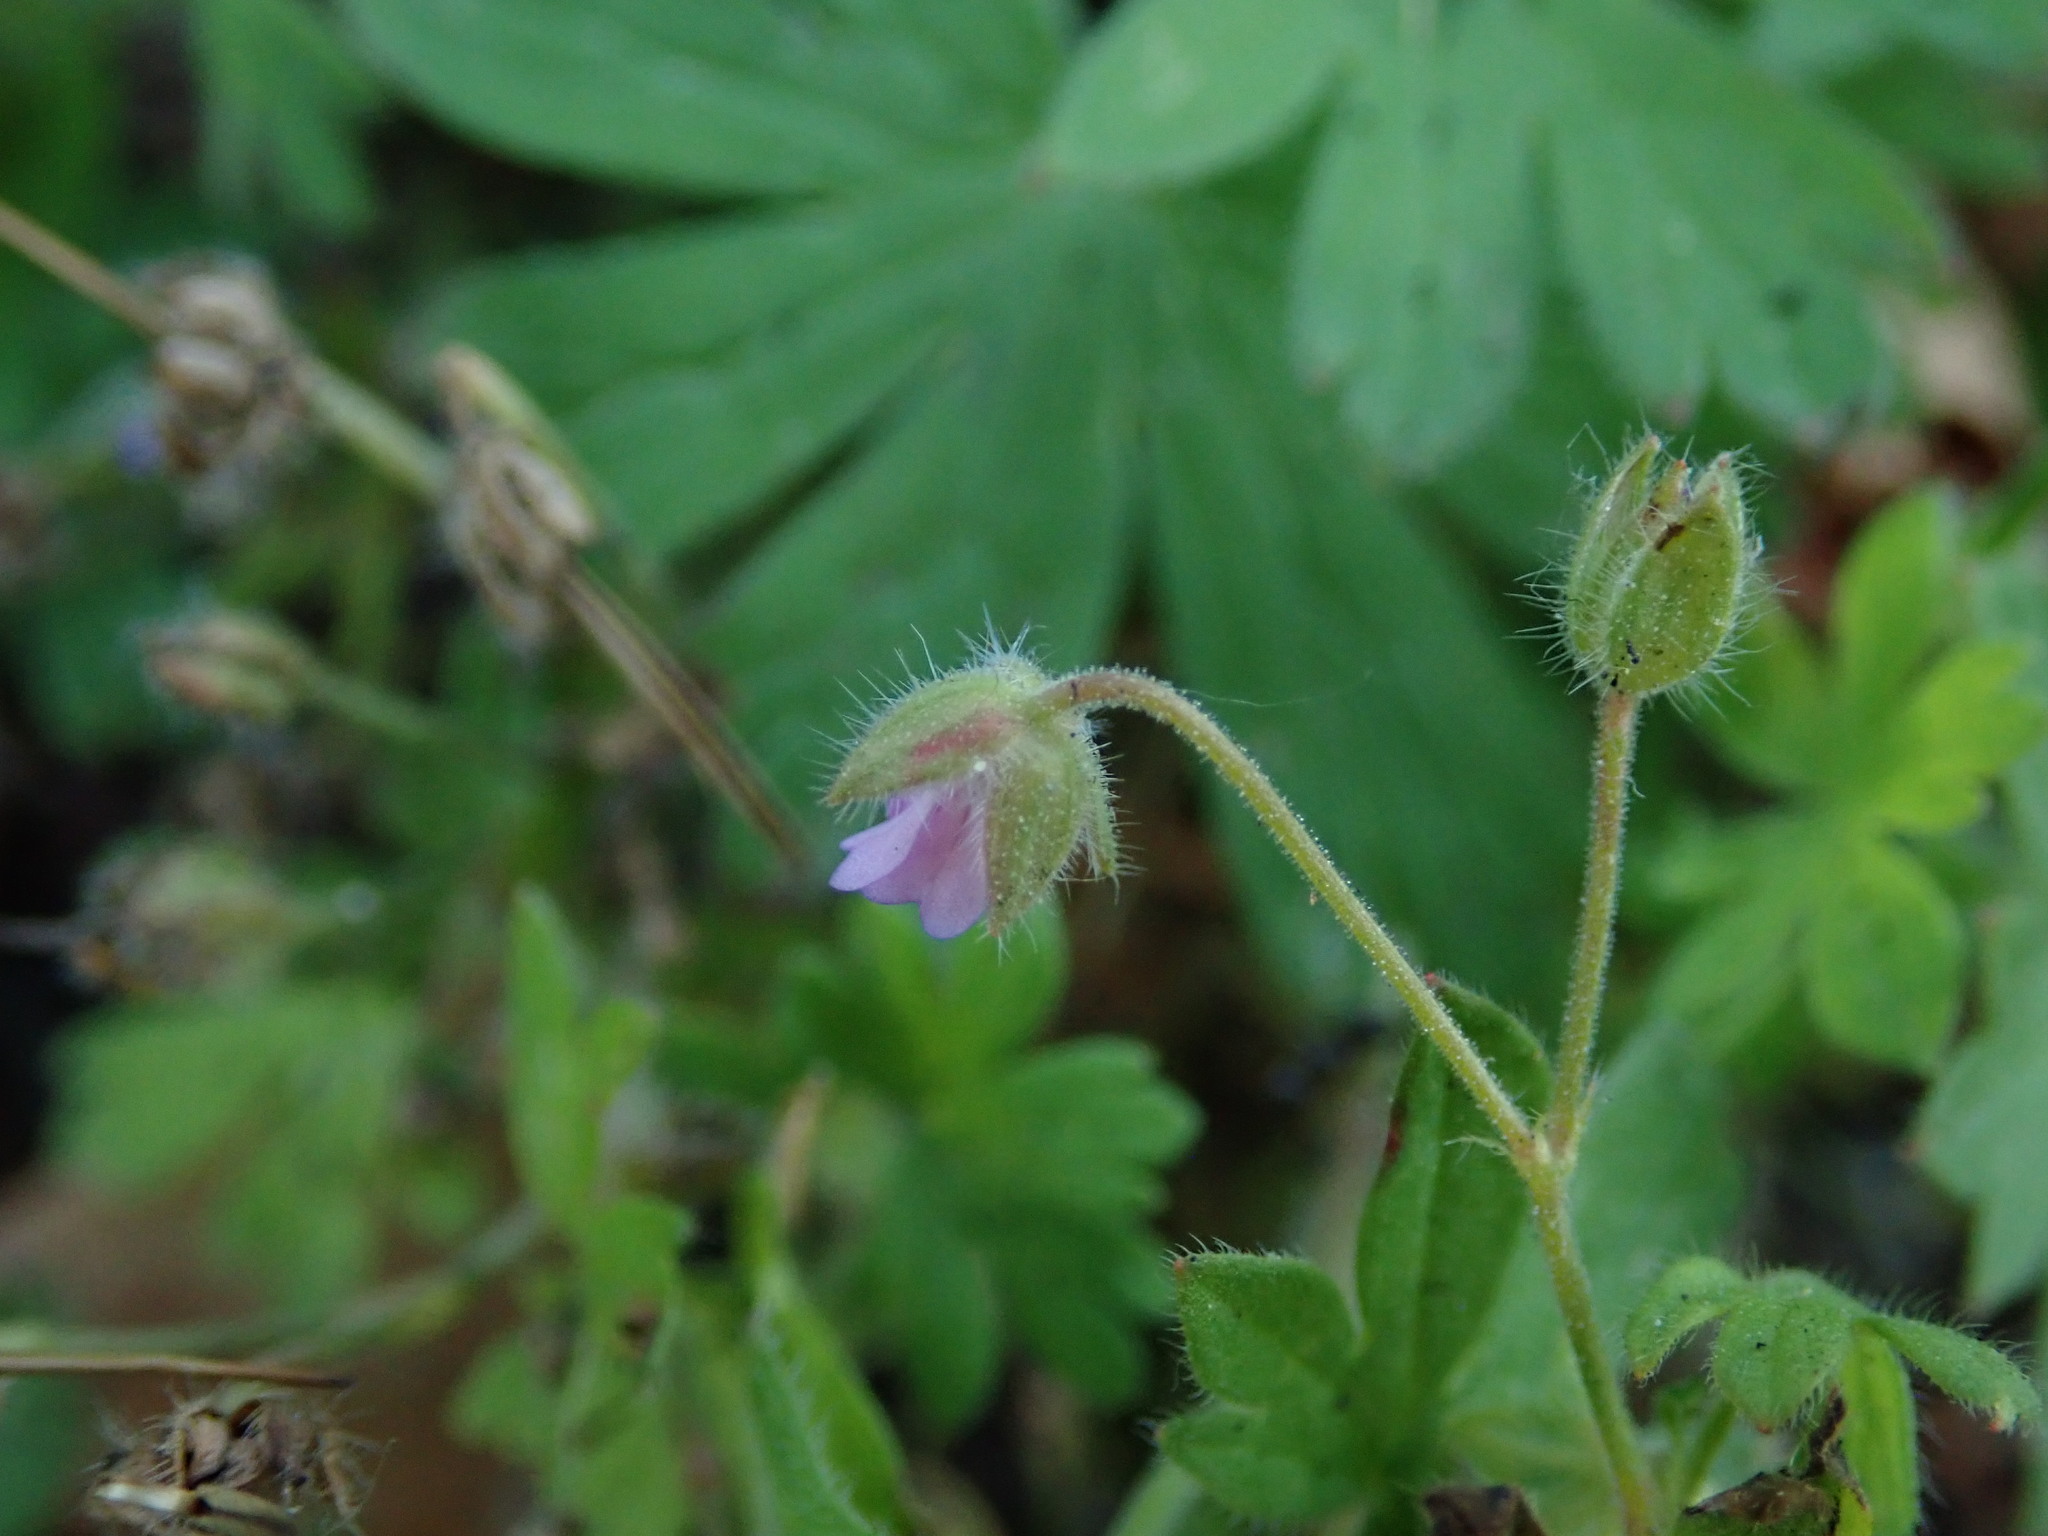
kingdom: Plantae
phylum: Tracheophyta
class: Magnoliopsida
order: Geraniales
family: Geraniaceae
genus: Geranium
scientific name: Geranium pusillum
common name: Small geranium
